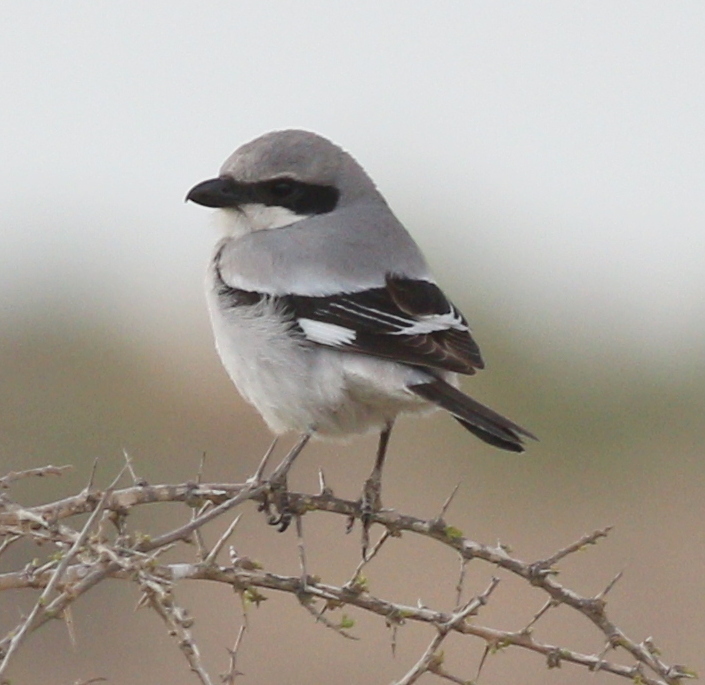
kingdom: Animalia
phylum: Chordata
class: Aves
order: Passeriformes
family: Laniidae
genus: Lanius
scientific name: Lanius excubitor
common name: Great grey shrike
